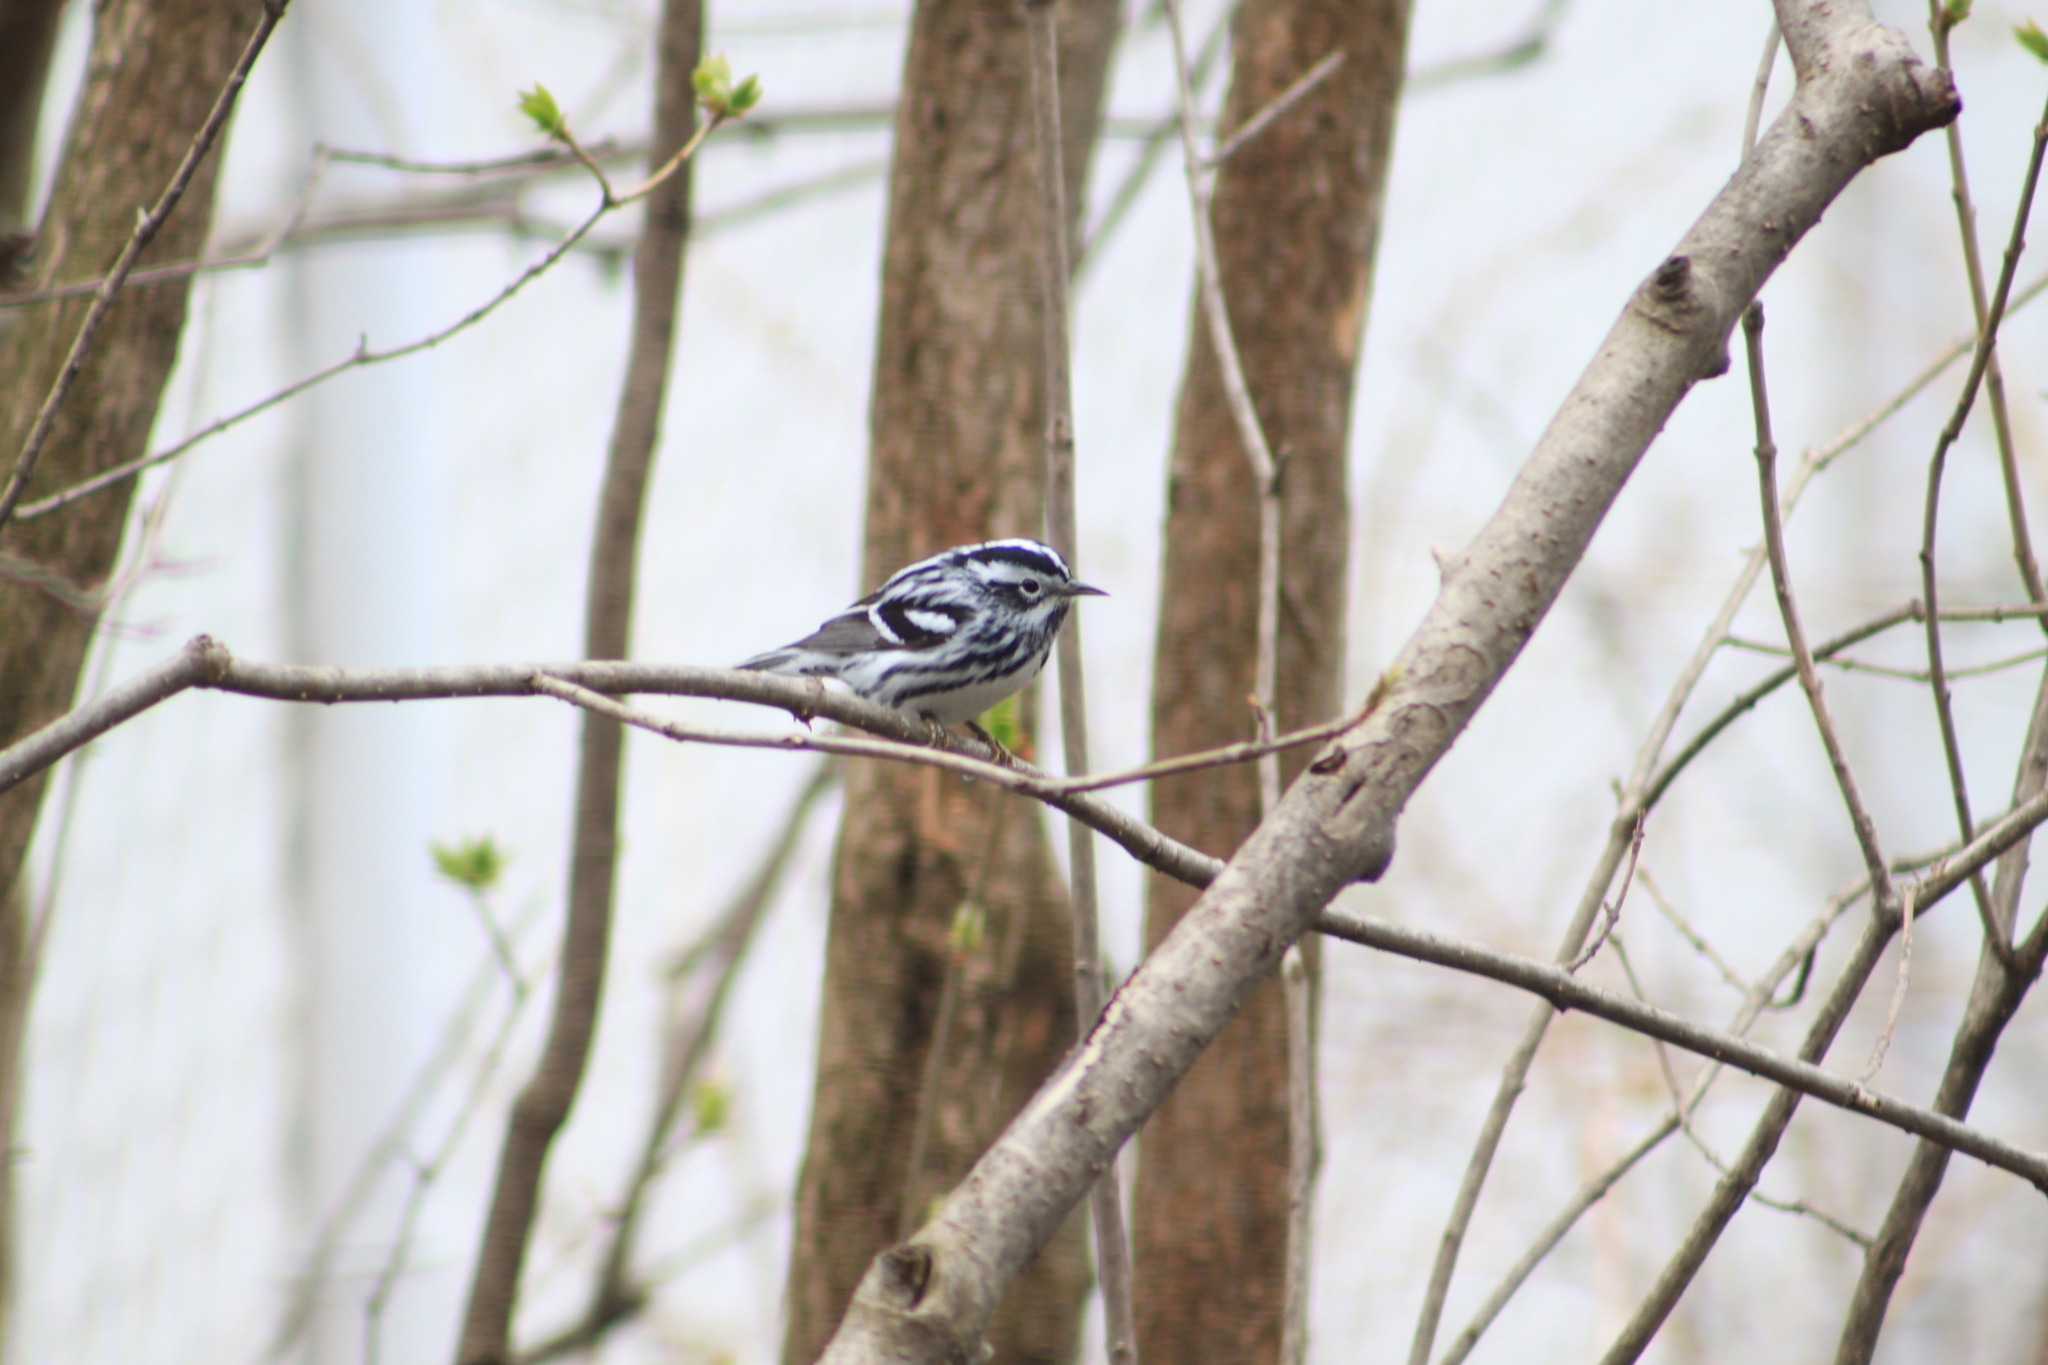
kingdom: Animalia
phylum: Chordata
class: Aves
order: Passeriformes
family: Parulidae
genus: Mniotilta
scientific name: Mniotilta varia
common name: Black-and-white warbler
